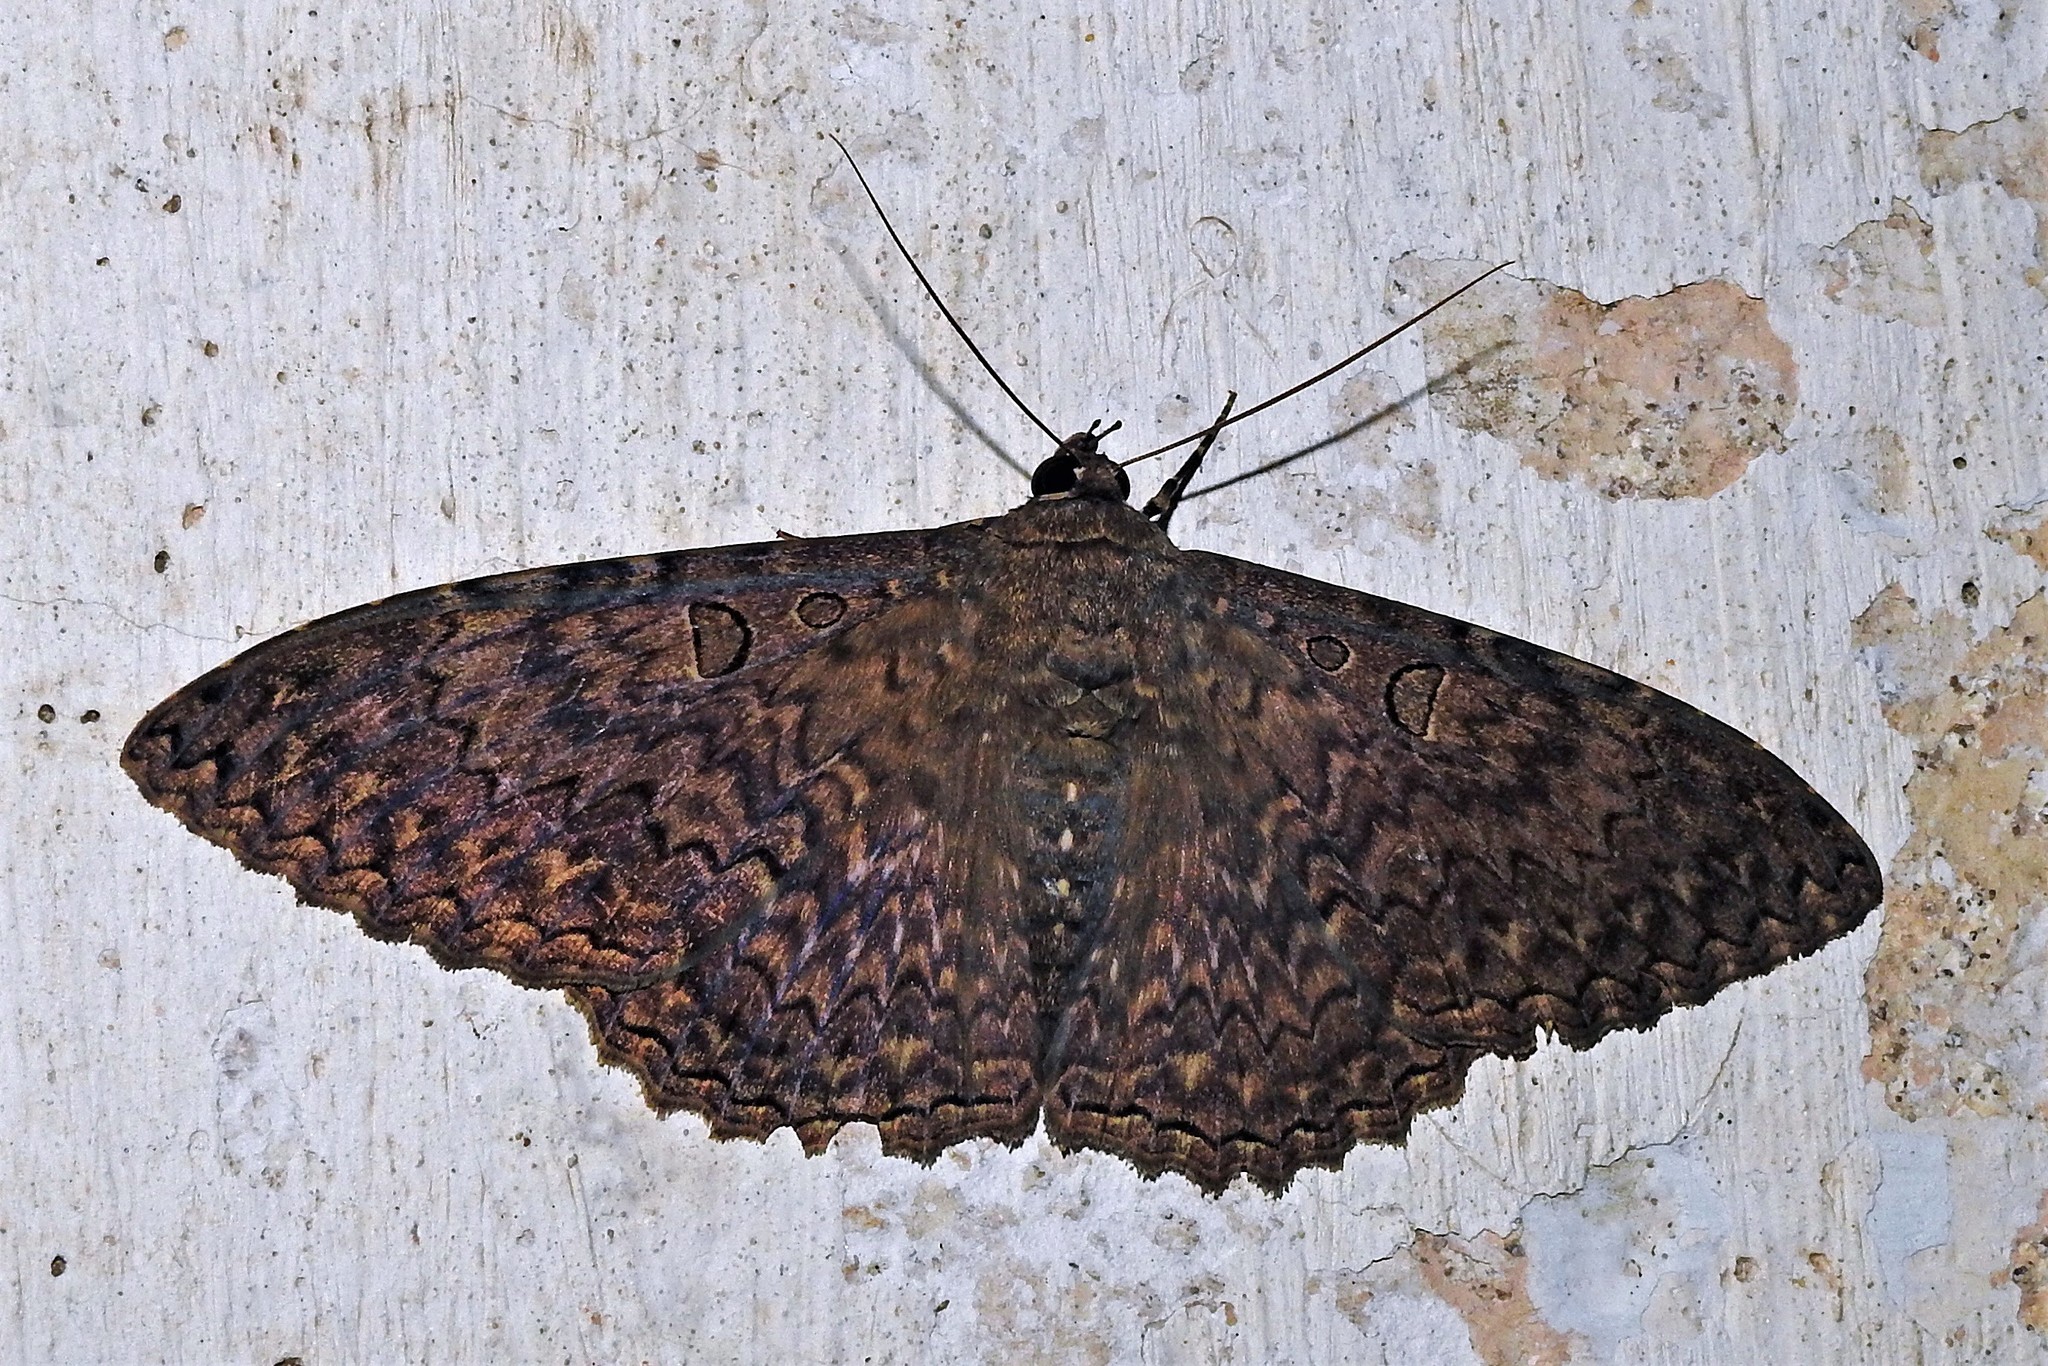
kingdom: Animalia
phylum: Arthropoda
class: Insecta
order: Lepidoptera
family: Erebidae
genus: Feigeria
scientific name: Feigeria scops
